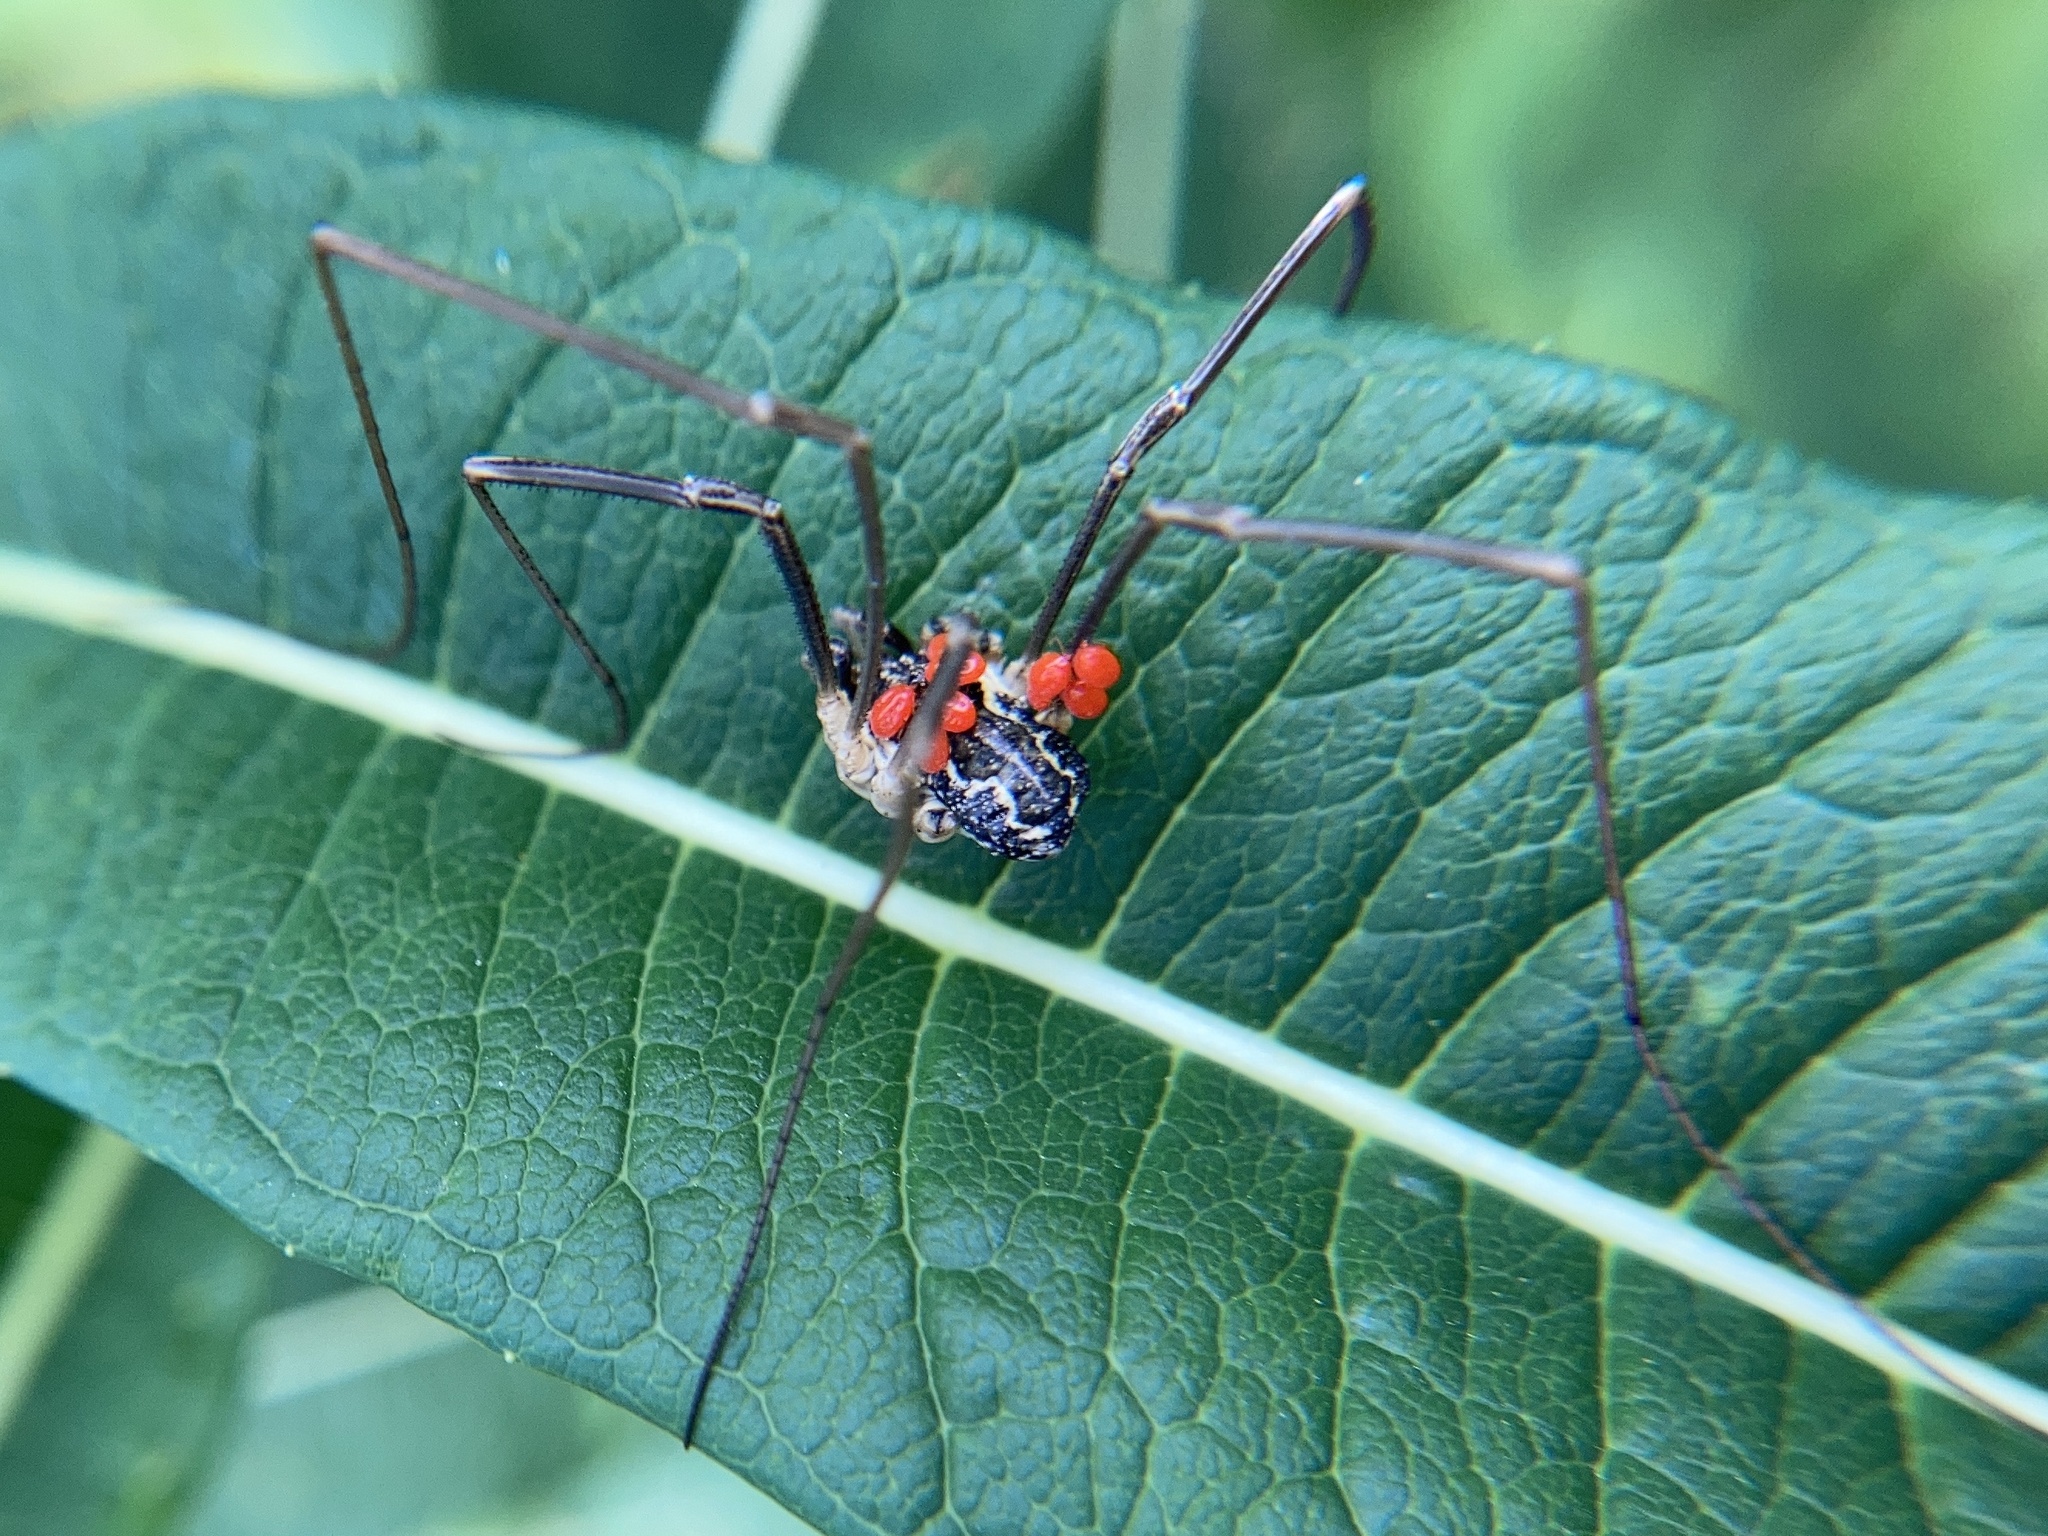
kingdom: Animalia
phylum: Arthropoda
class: Arachnida
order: Opiliones
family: Phalangiidae
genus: Mitopus
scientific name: Mitopus morio
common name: Saddleback harvestman
